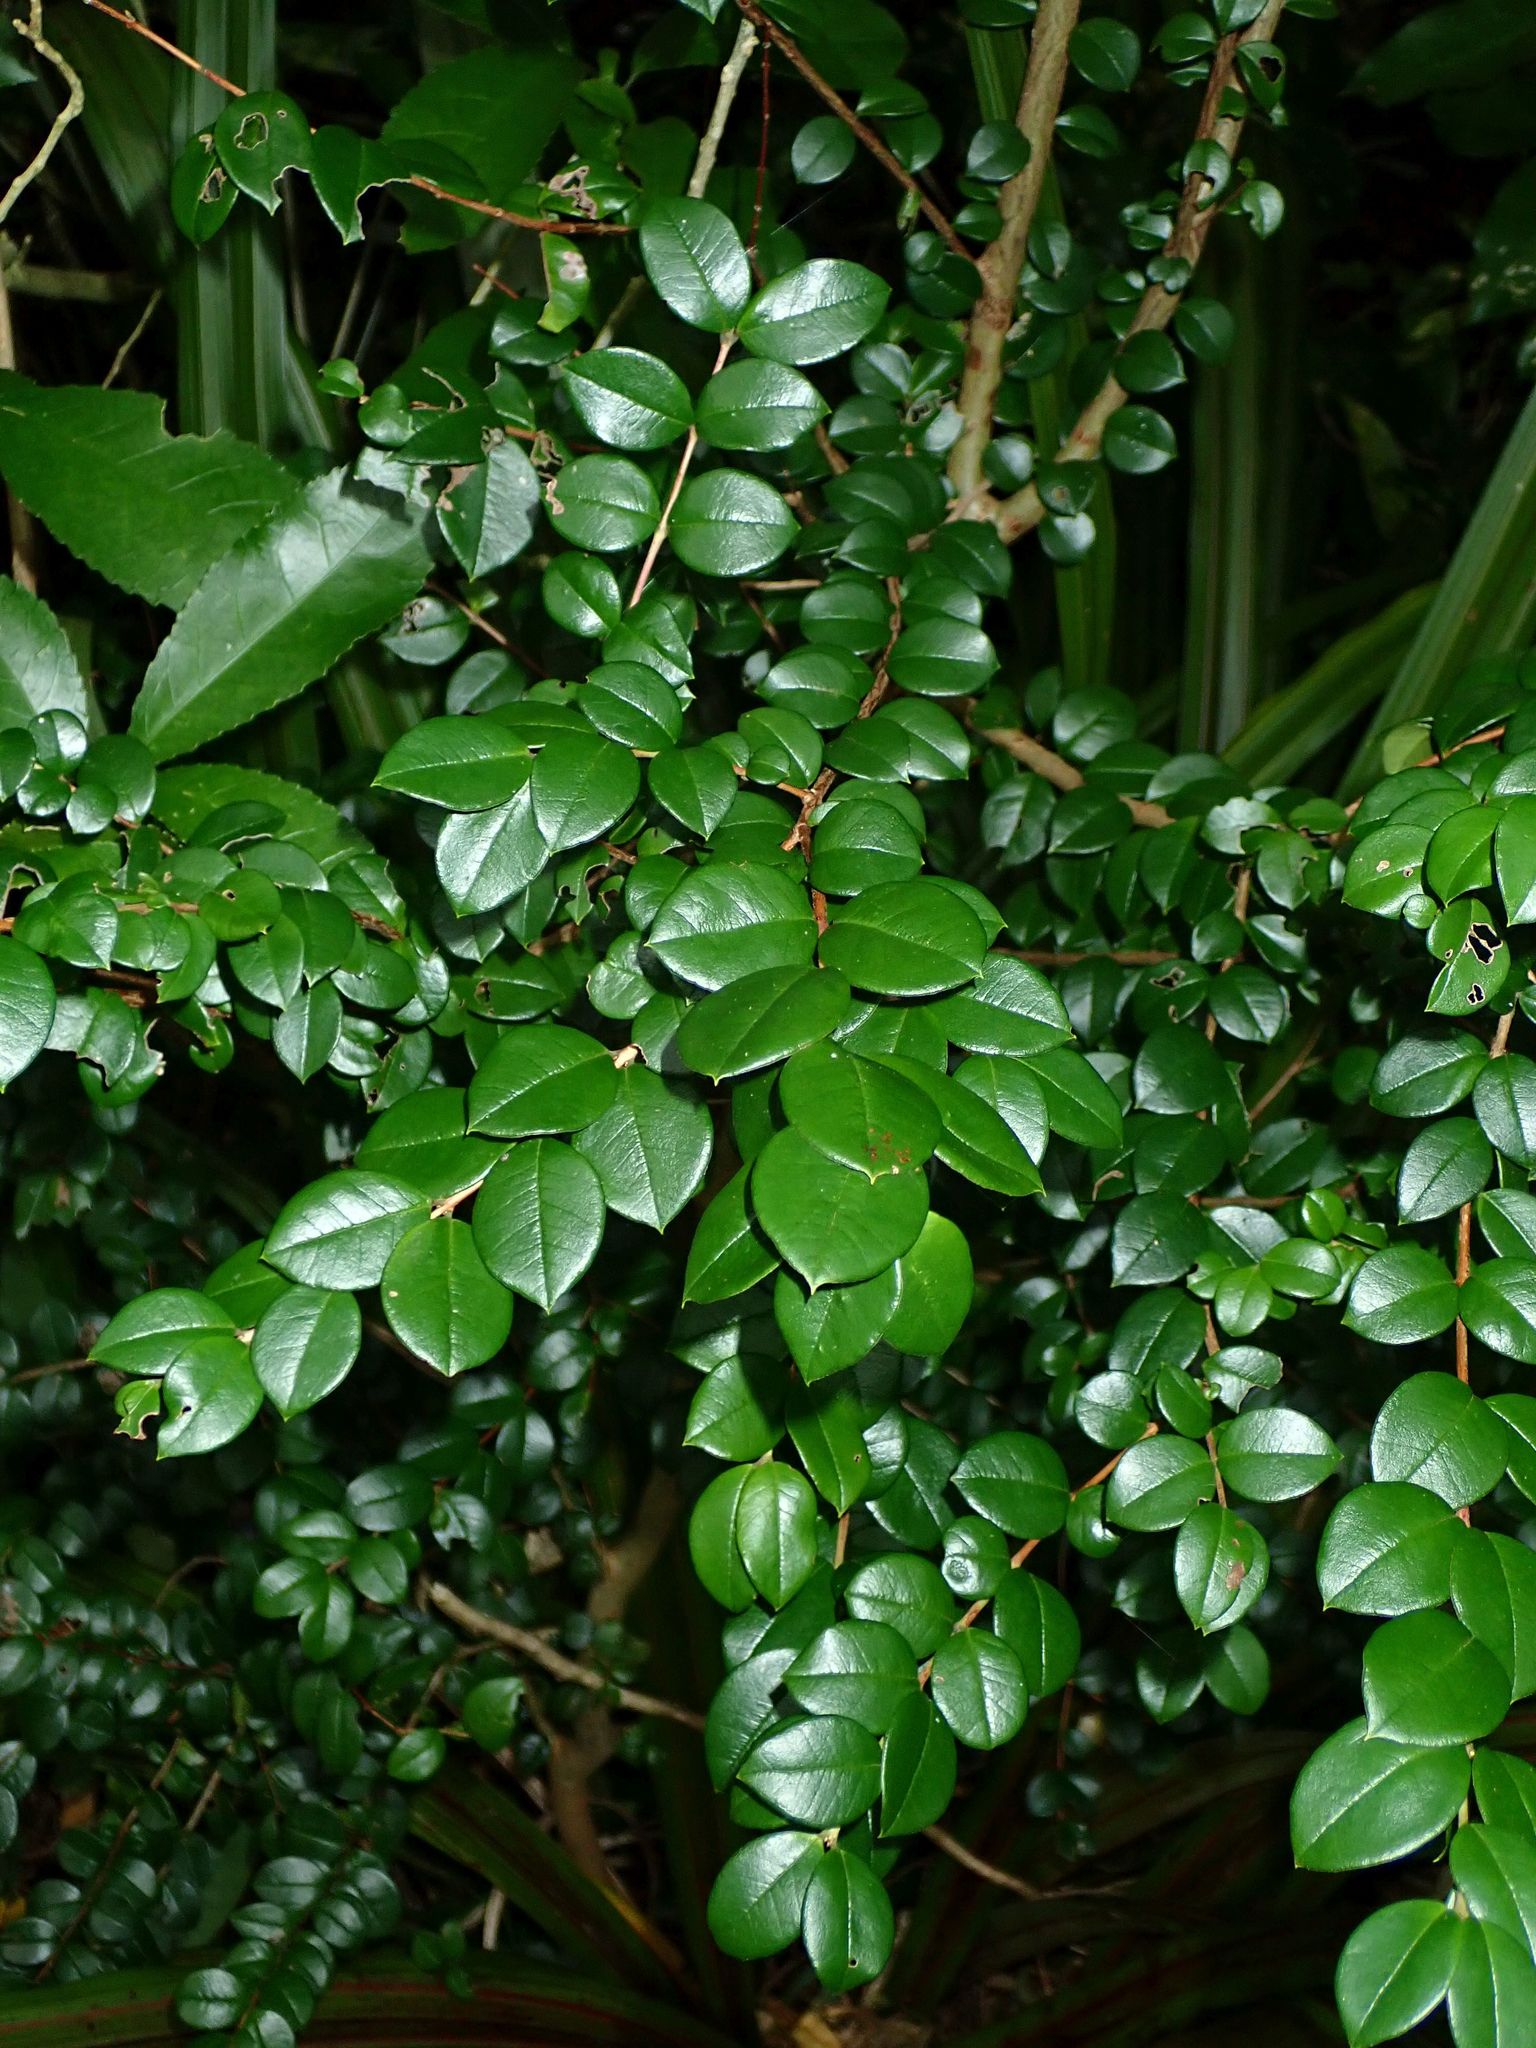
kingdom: Plantae
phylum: Tracheophyta
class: Magnoliopsida
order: Myrtales
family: Myrtaceae
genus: Luma
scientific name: Luma apiculata
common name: Chilean myrtle
